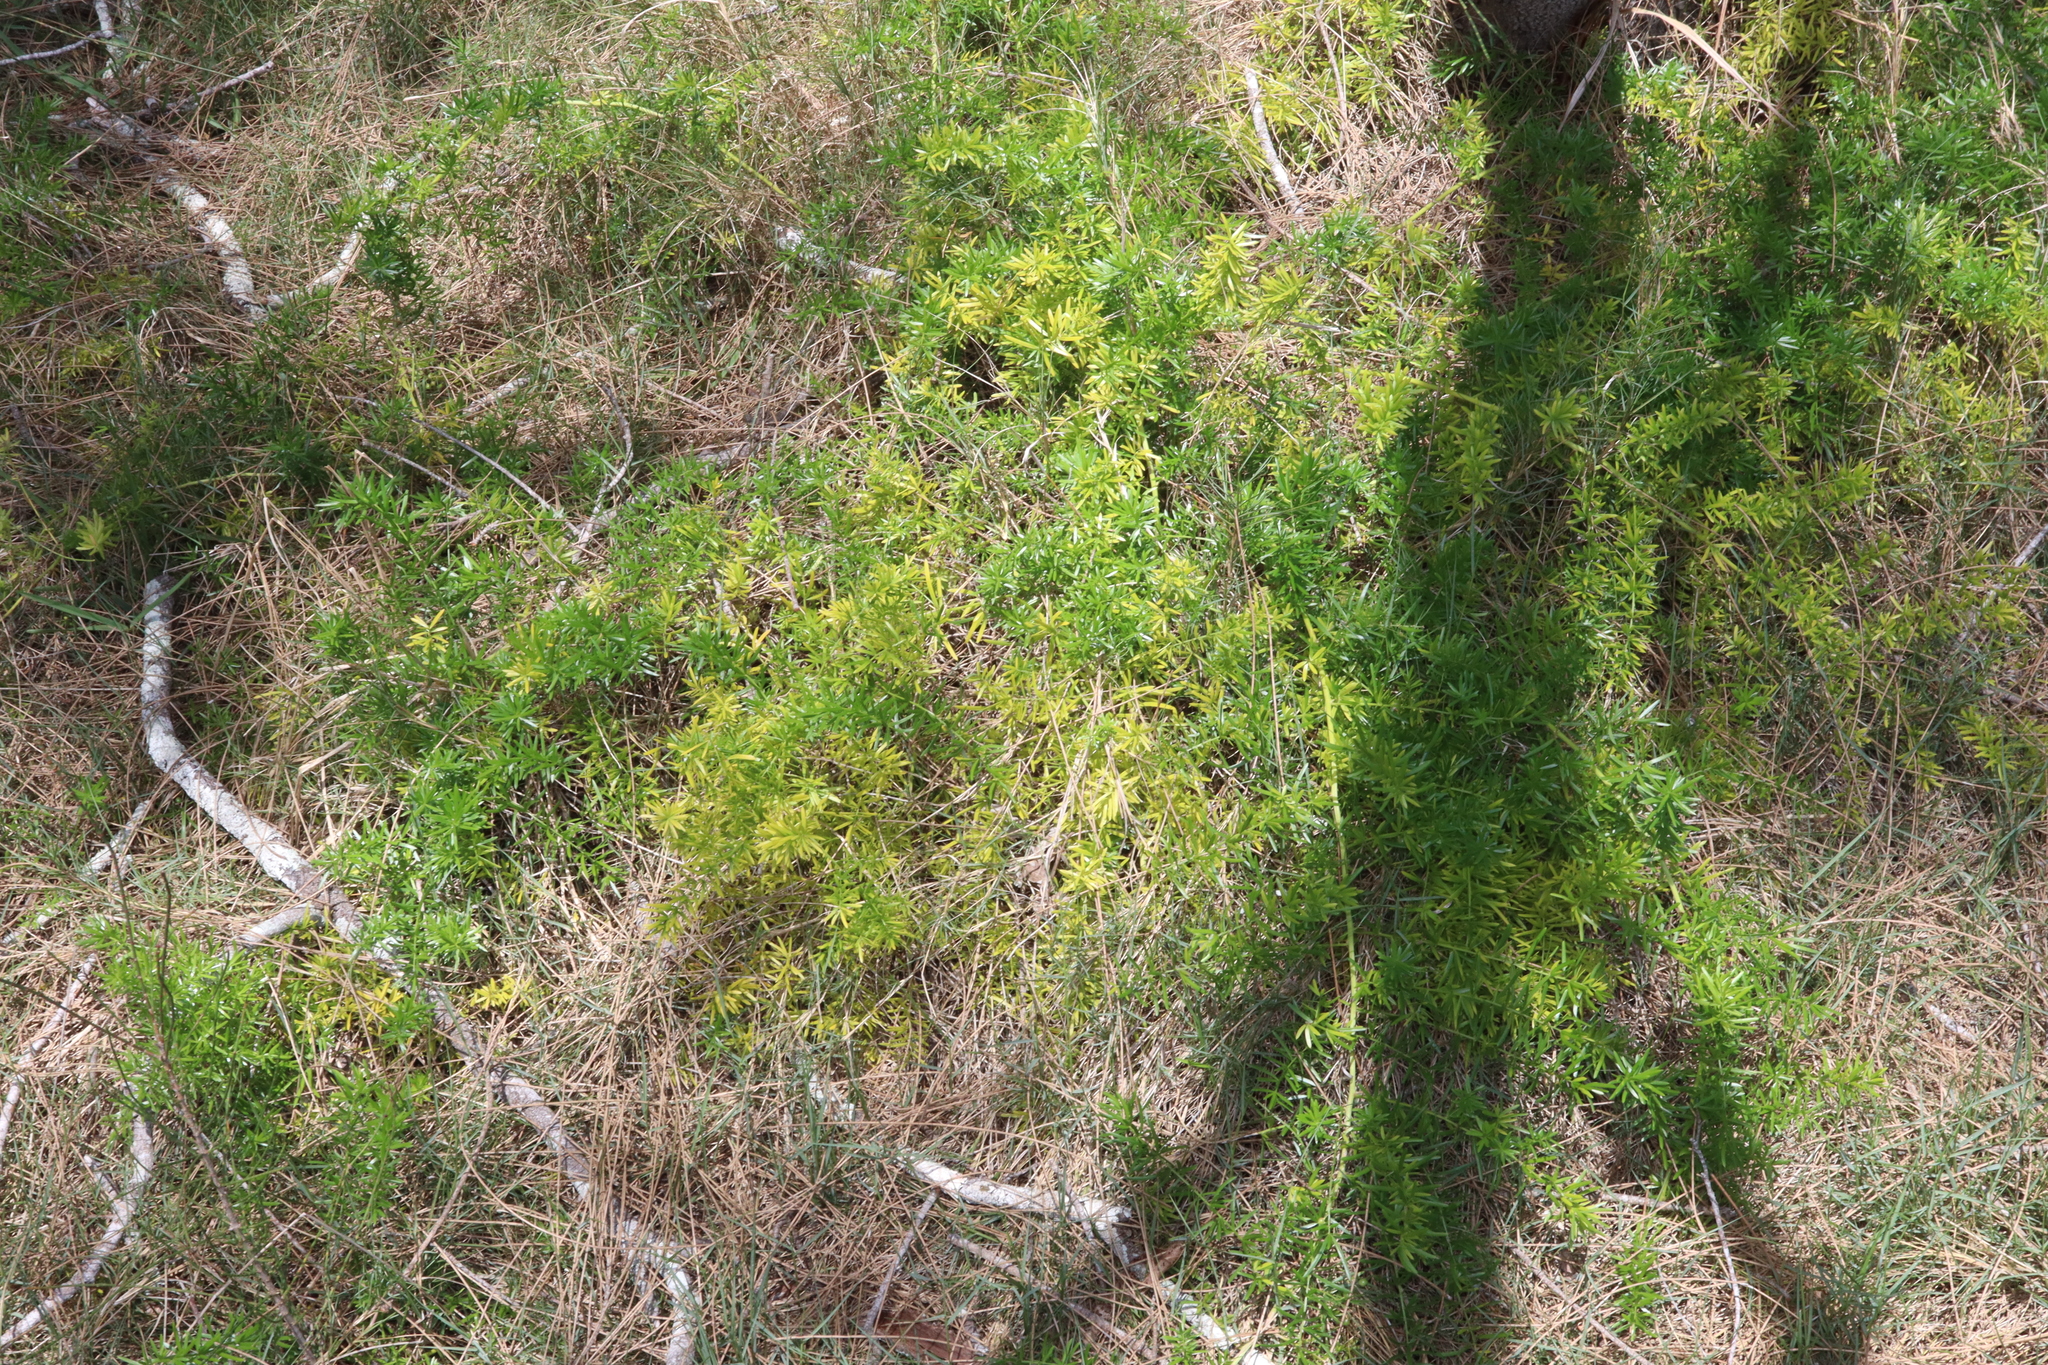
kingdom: Plantae
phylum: Tracheophyta
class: Liliopsida
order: Asparagales
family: Asparagaceae
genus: Asparagus
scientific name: Asparagus aethiopicus
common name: Sprenger's asparagus fern
